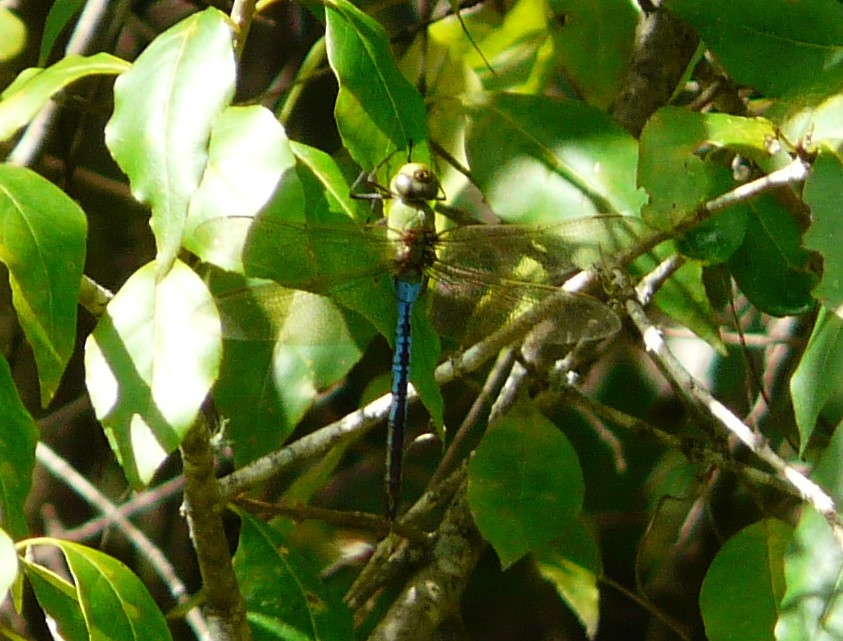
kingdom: Animalia
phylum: Arthropoda
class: Insecta
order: Odonata
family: Aeshnidae
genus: Anax
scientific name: Anax junius
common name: Common green darner
